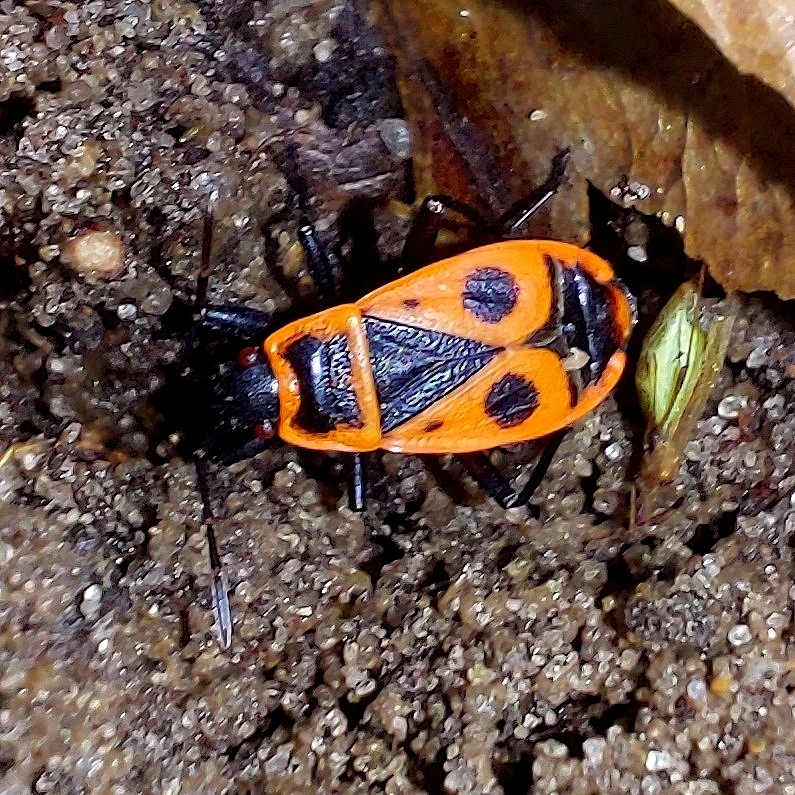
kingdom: Animalia
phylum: Arthropoda
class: Insecta
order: Hemiptera
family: Pyrrhocoridae
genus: Pyrrhocoris
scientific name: Pyrrhocoris apterus
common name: Firebug
